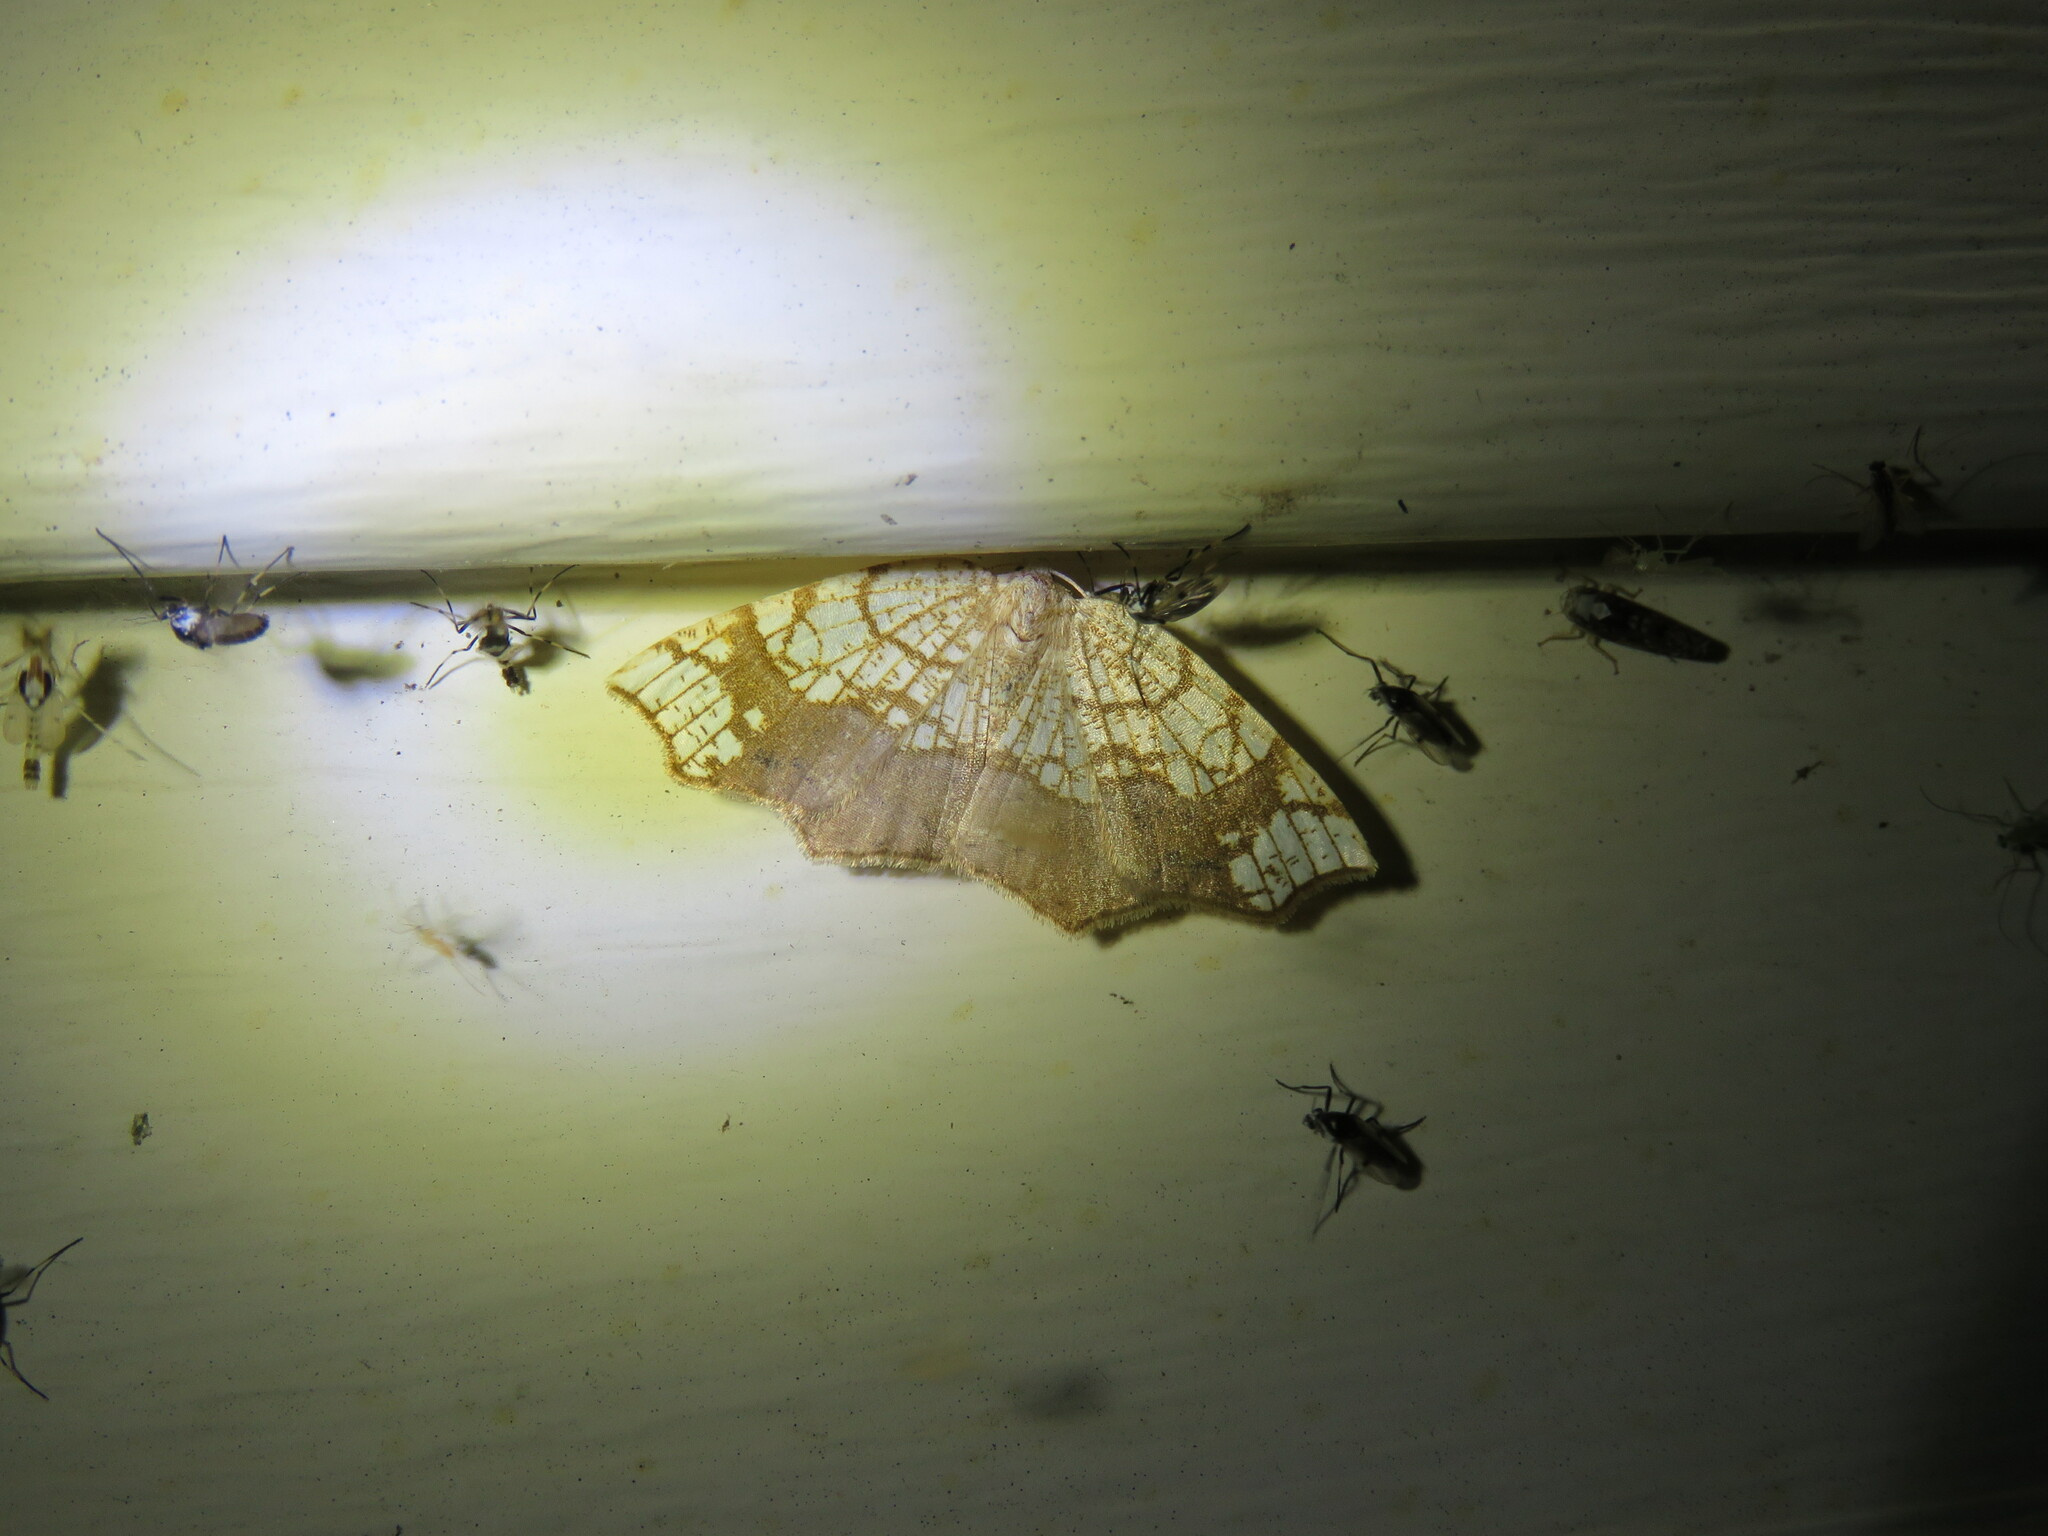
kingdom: Animalia
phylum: Arthropoda
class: Insecta
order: Lepidoptera
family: Geometridae
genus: Nematocampa
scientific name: Nematocampa resistaria
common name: Horned spanworm moth
